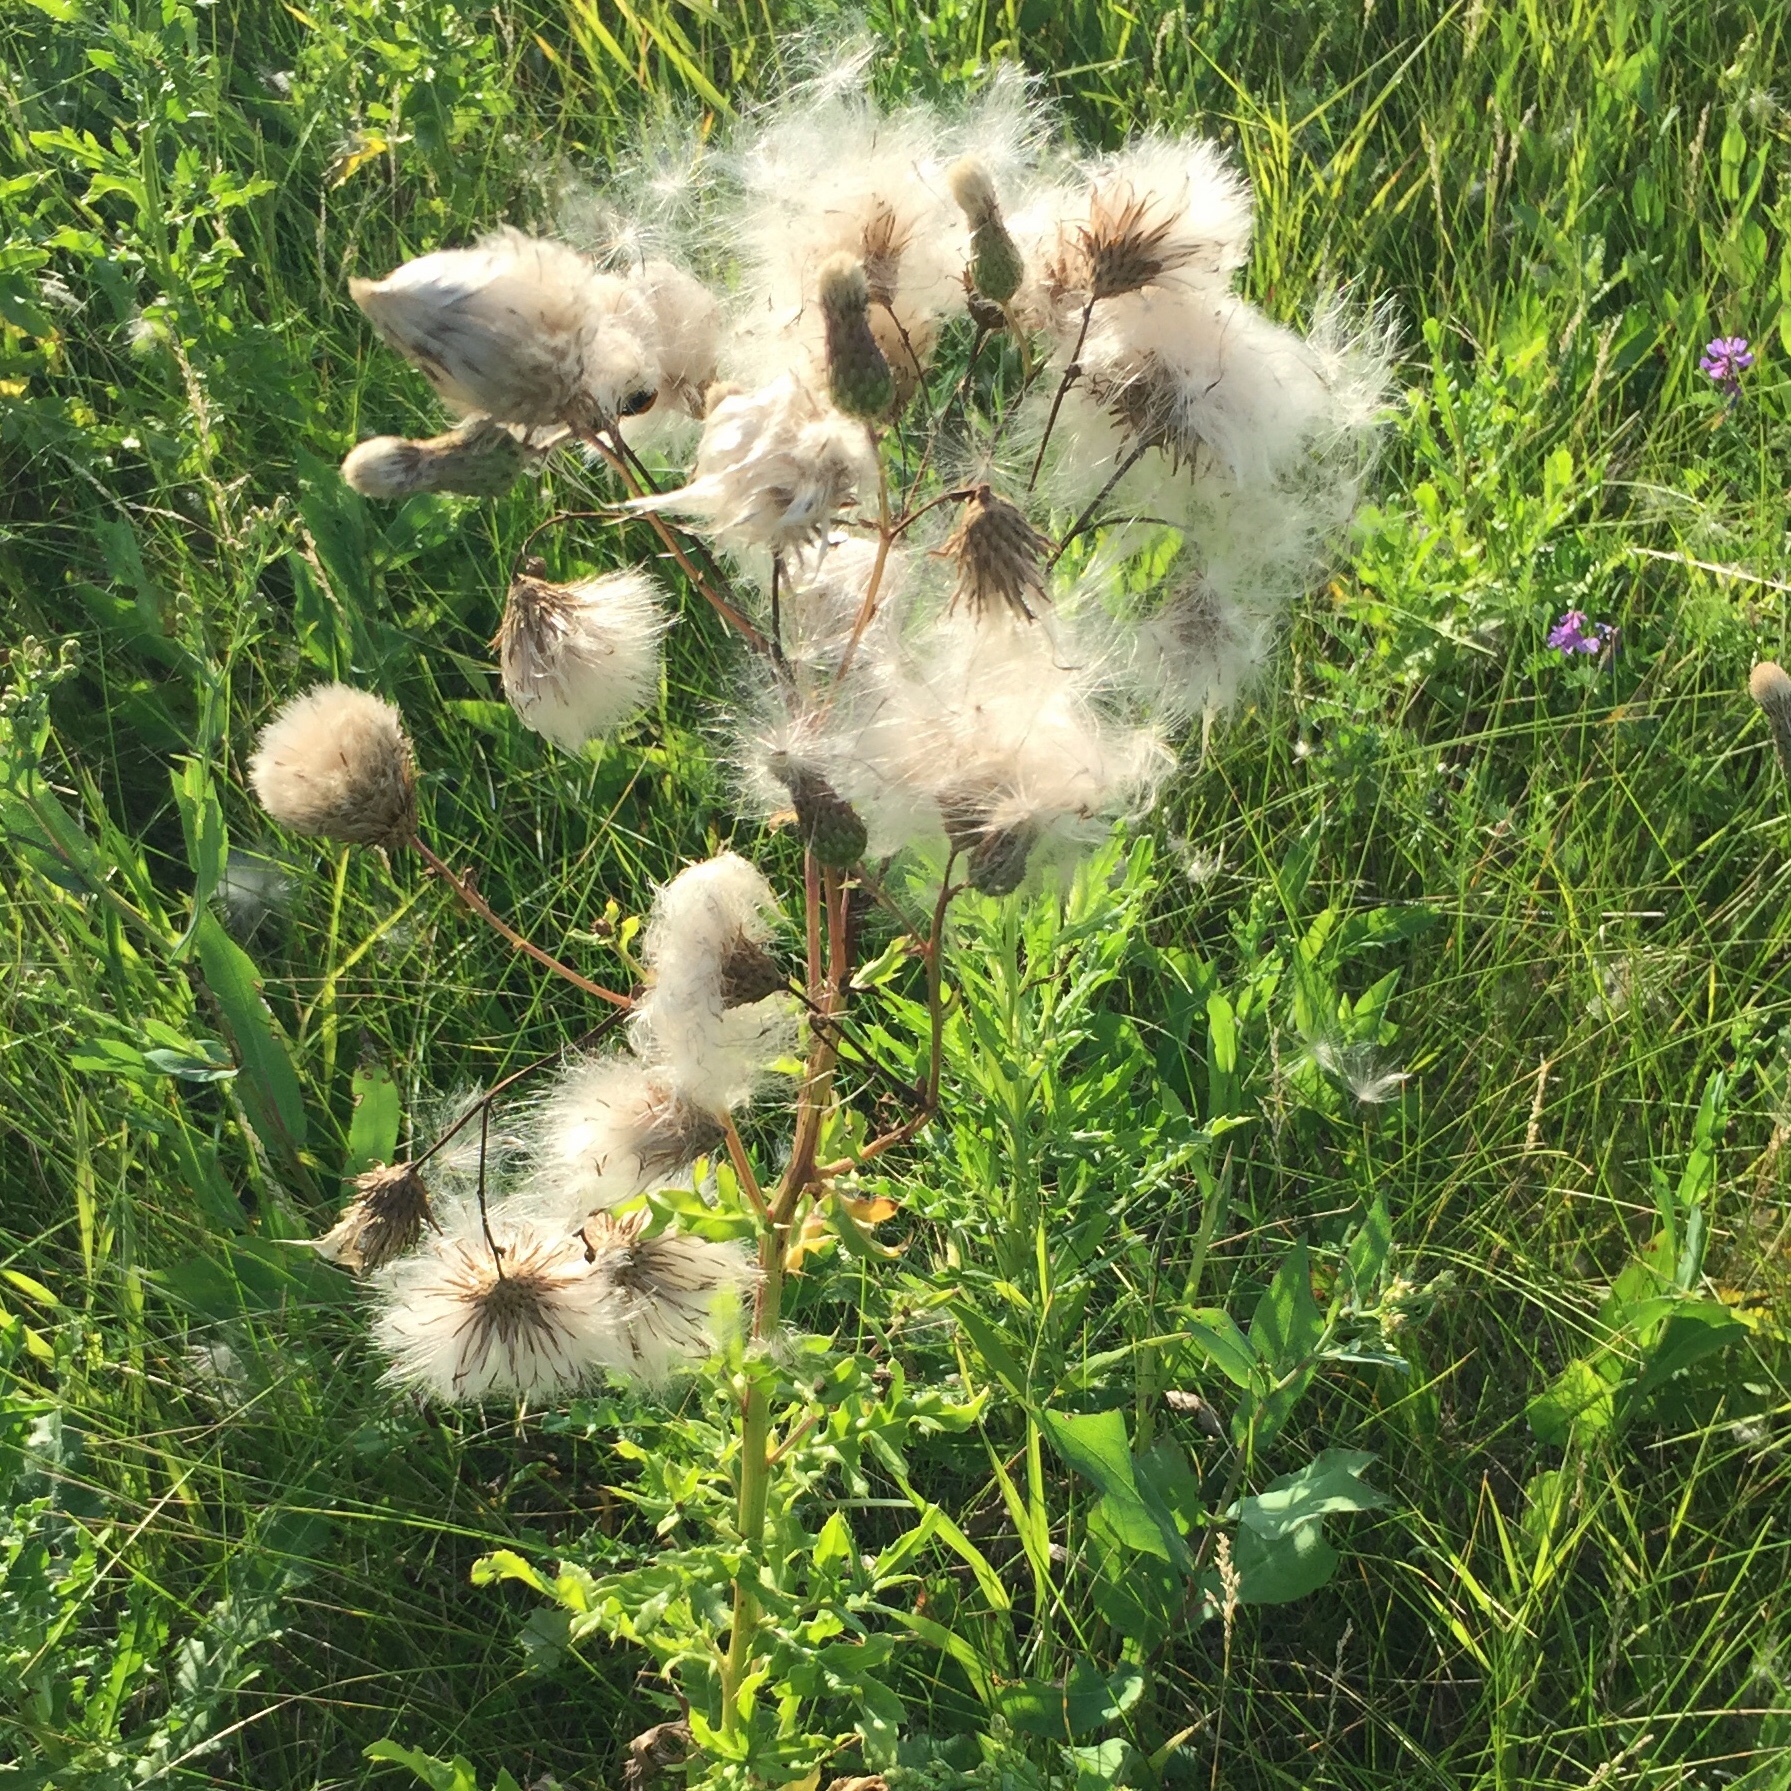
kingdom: Plantae
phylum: Tracheophyta
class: Magnoliopsida
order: Asterales
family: Asteraceae
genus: Cirsium
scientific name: Cirsium arvense
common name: Creeping thistle
